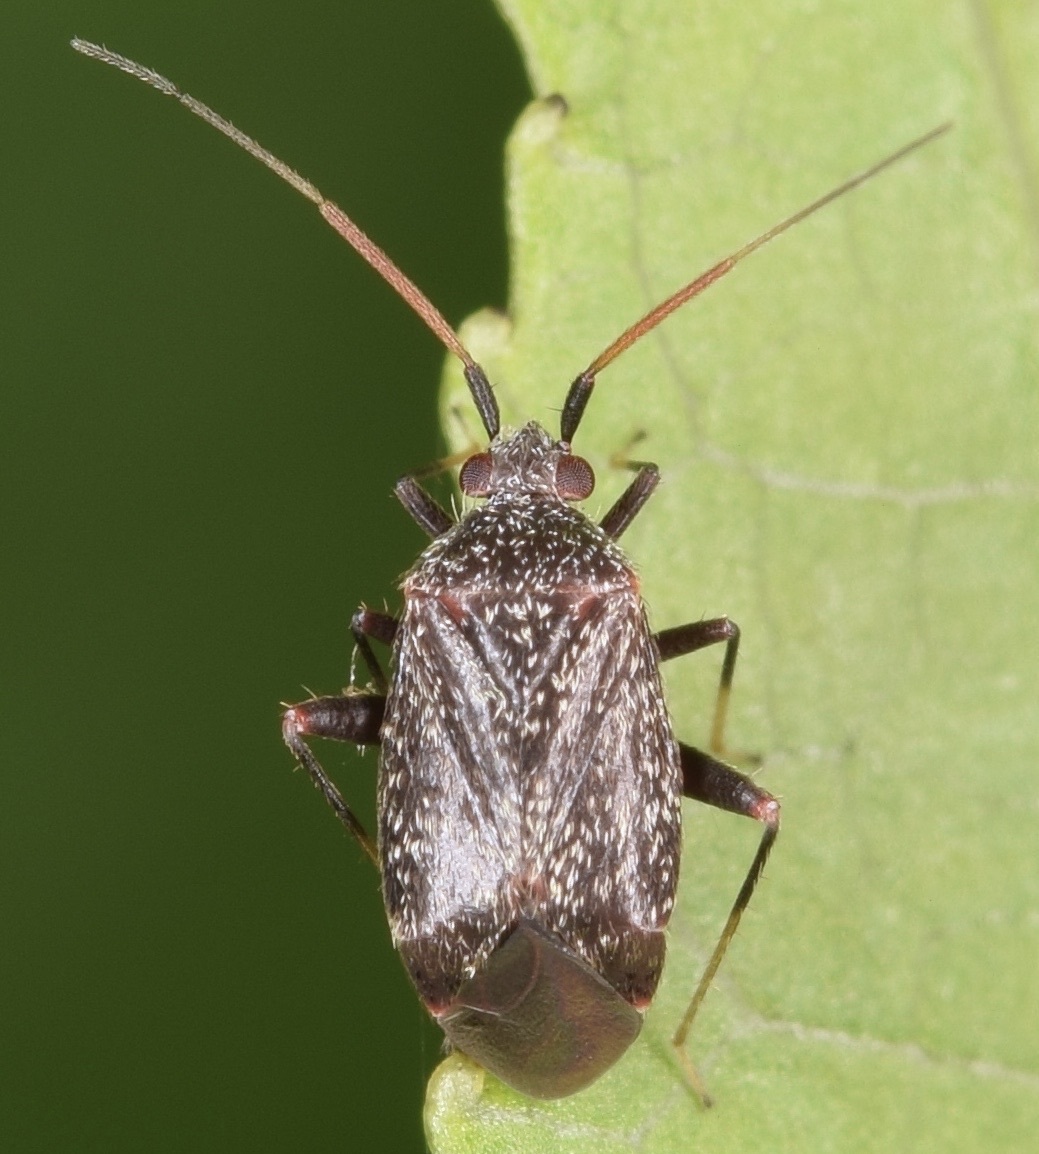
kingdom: Animalia
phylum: Arthropoda
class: Insecta
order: Hemiptera
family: Miridae
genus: Texocoris
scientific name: Texocoris nigrellus
